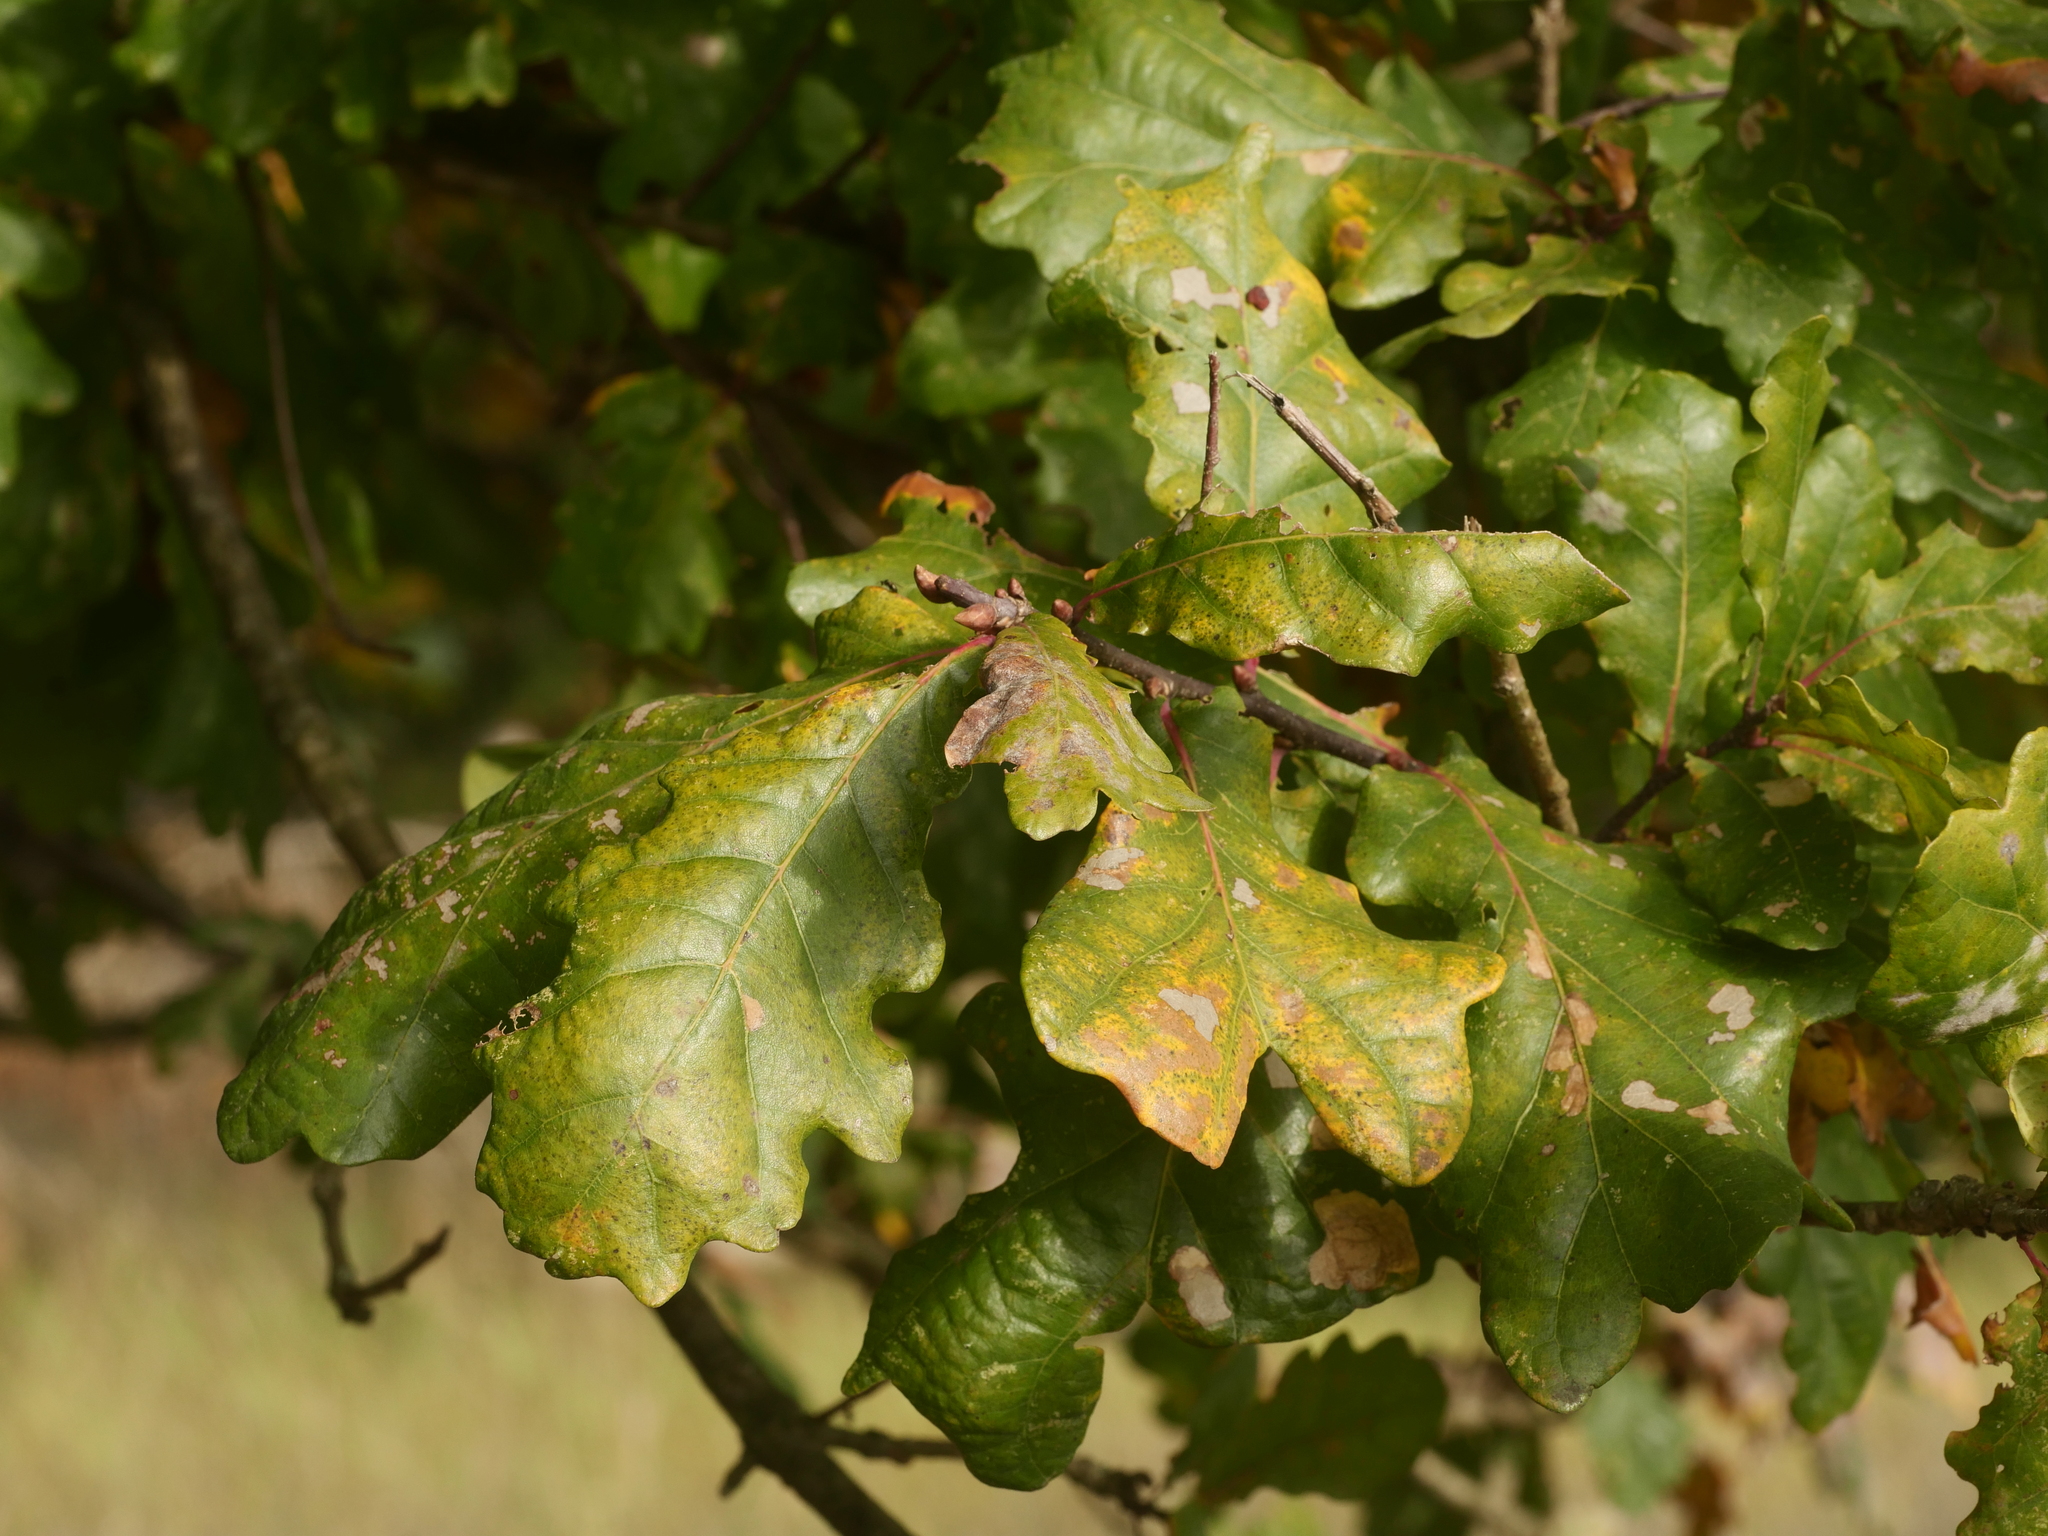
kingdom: Plantae
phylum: Tracheophyta
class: Magnoliopsida
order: Fagales
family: Fagaceae
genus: Quercus
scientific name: Quercus robur
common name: Pedunculate oak
